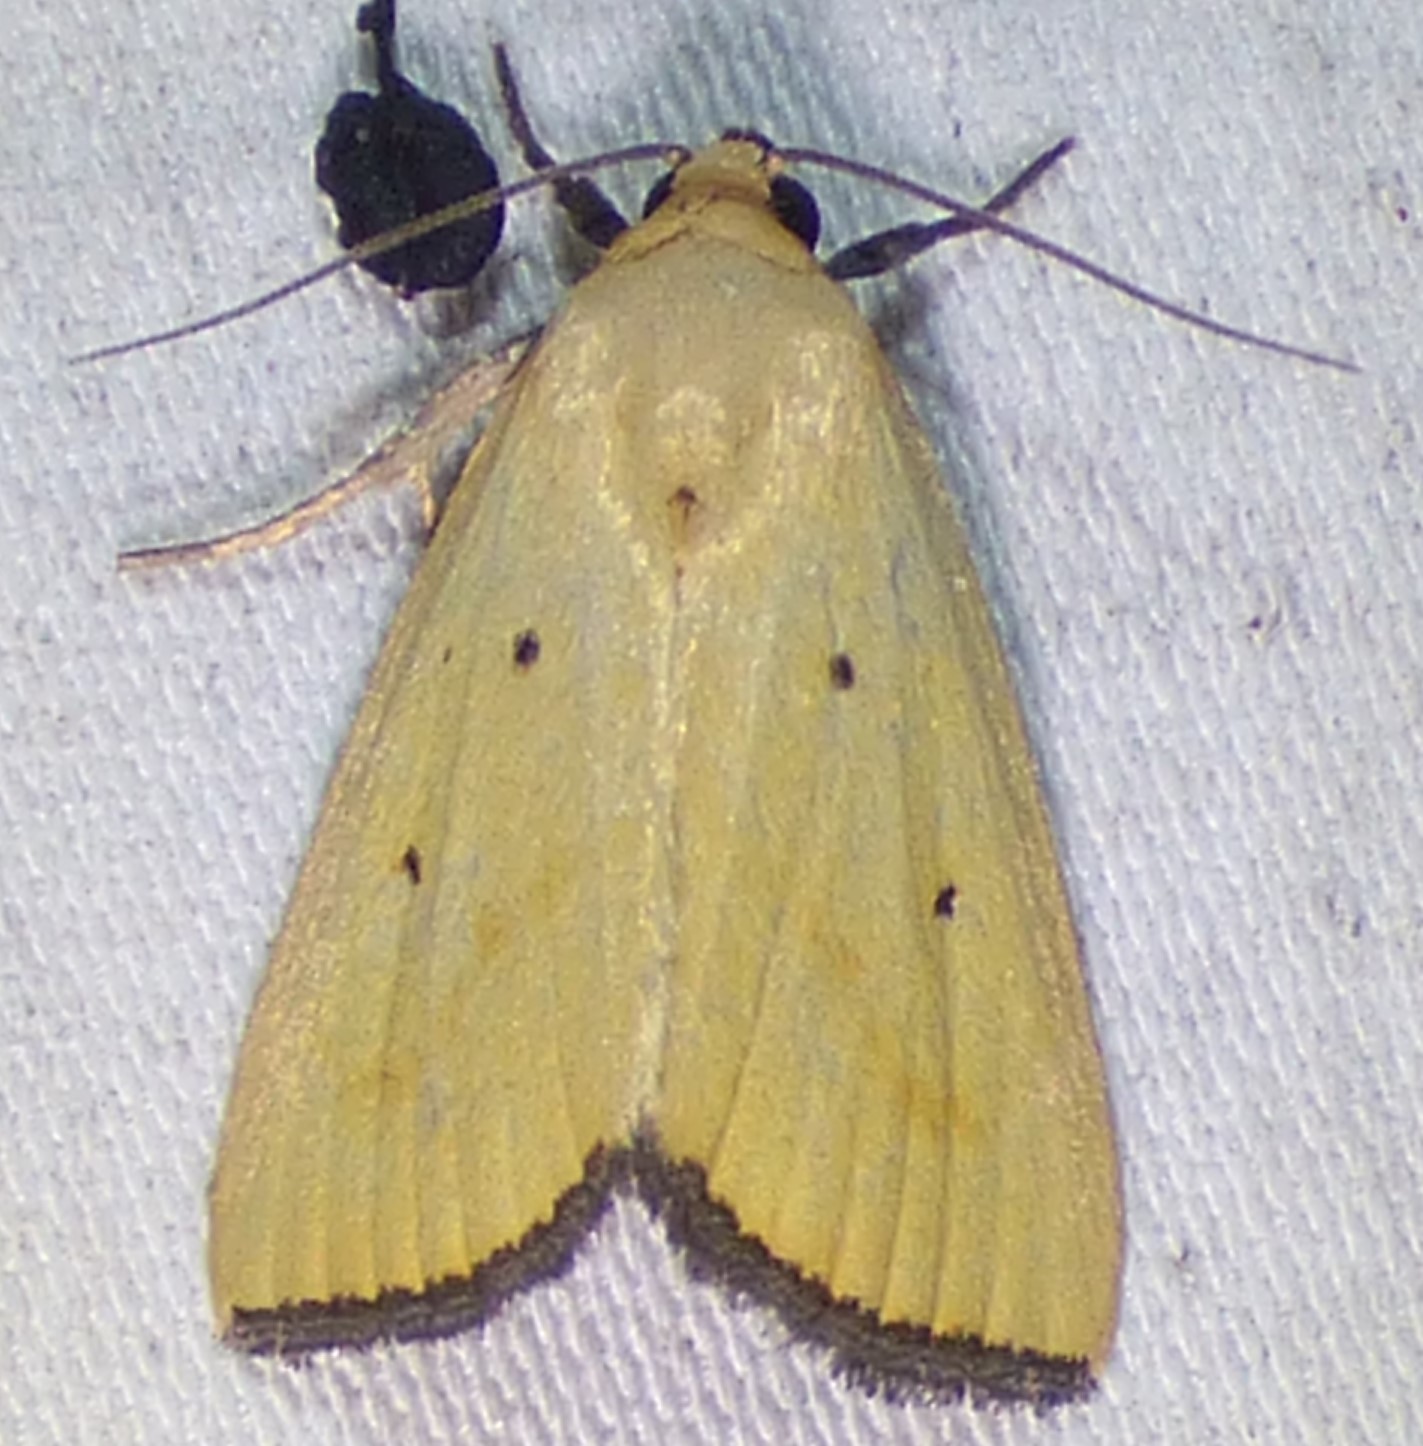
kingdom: Animalia
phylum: Arthropoda
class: Insecta
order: Lepidoptera
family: Noctuidae
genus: Marimatha
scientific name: Marimatha nigrofimbria
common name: Black-bordered lemon moth
